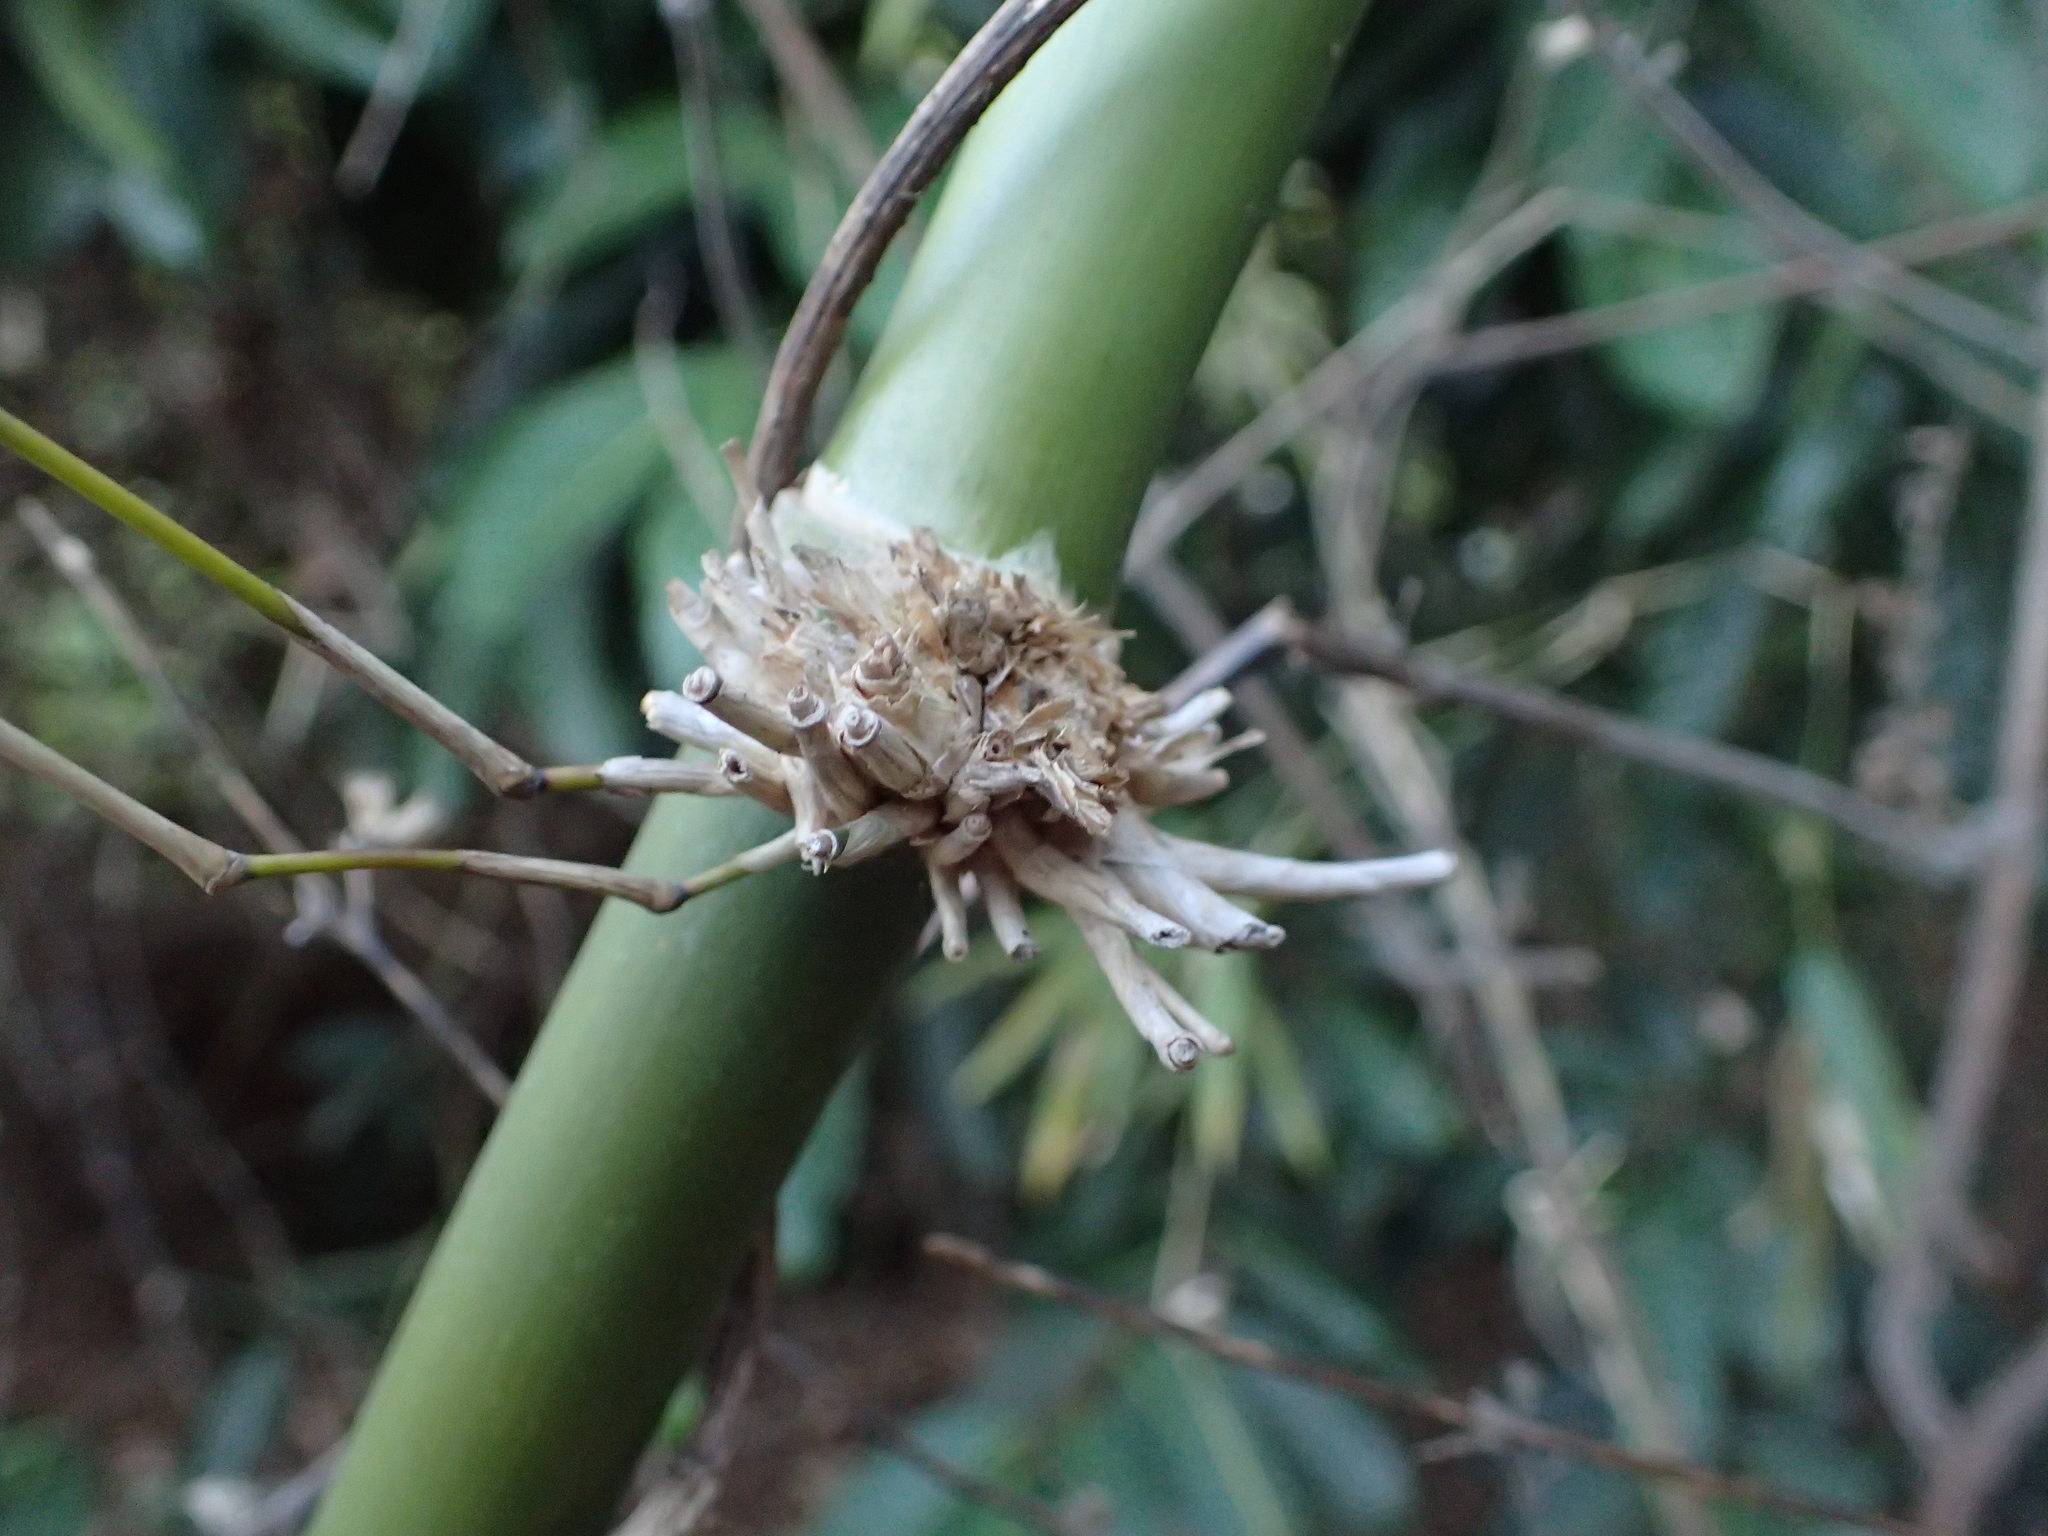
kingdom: Plantae
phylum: Tracheophyta
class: Liliopsida
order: Poales
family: Poaceae
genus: Valiha
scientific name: Valiha diffusa
